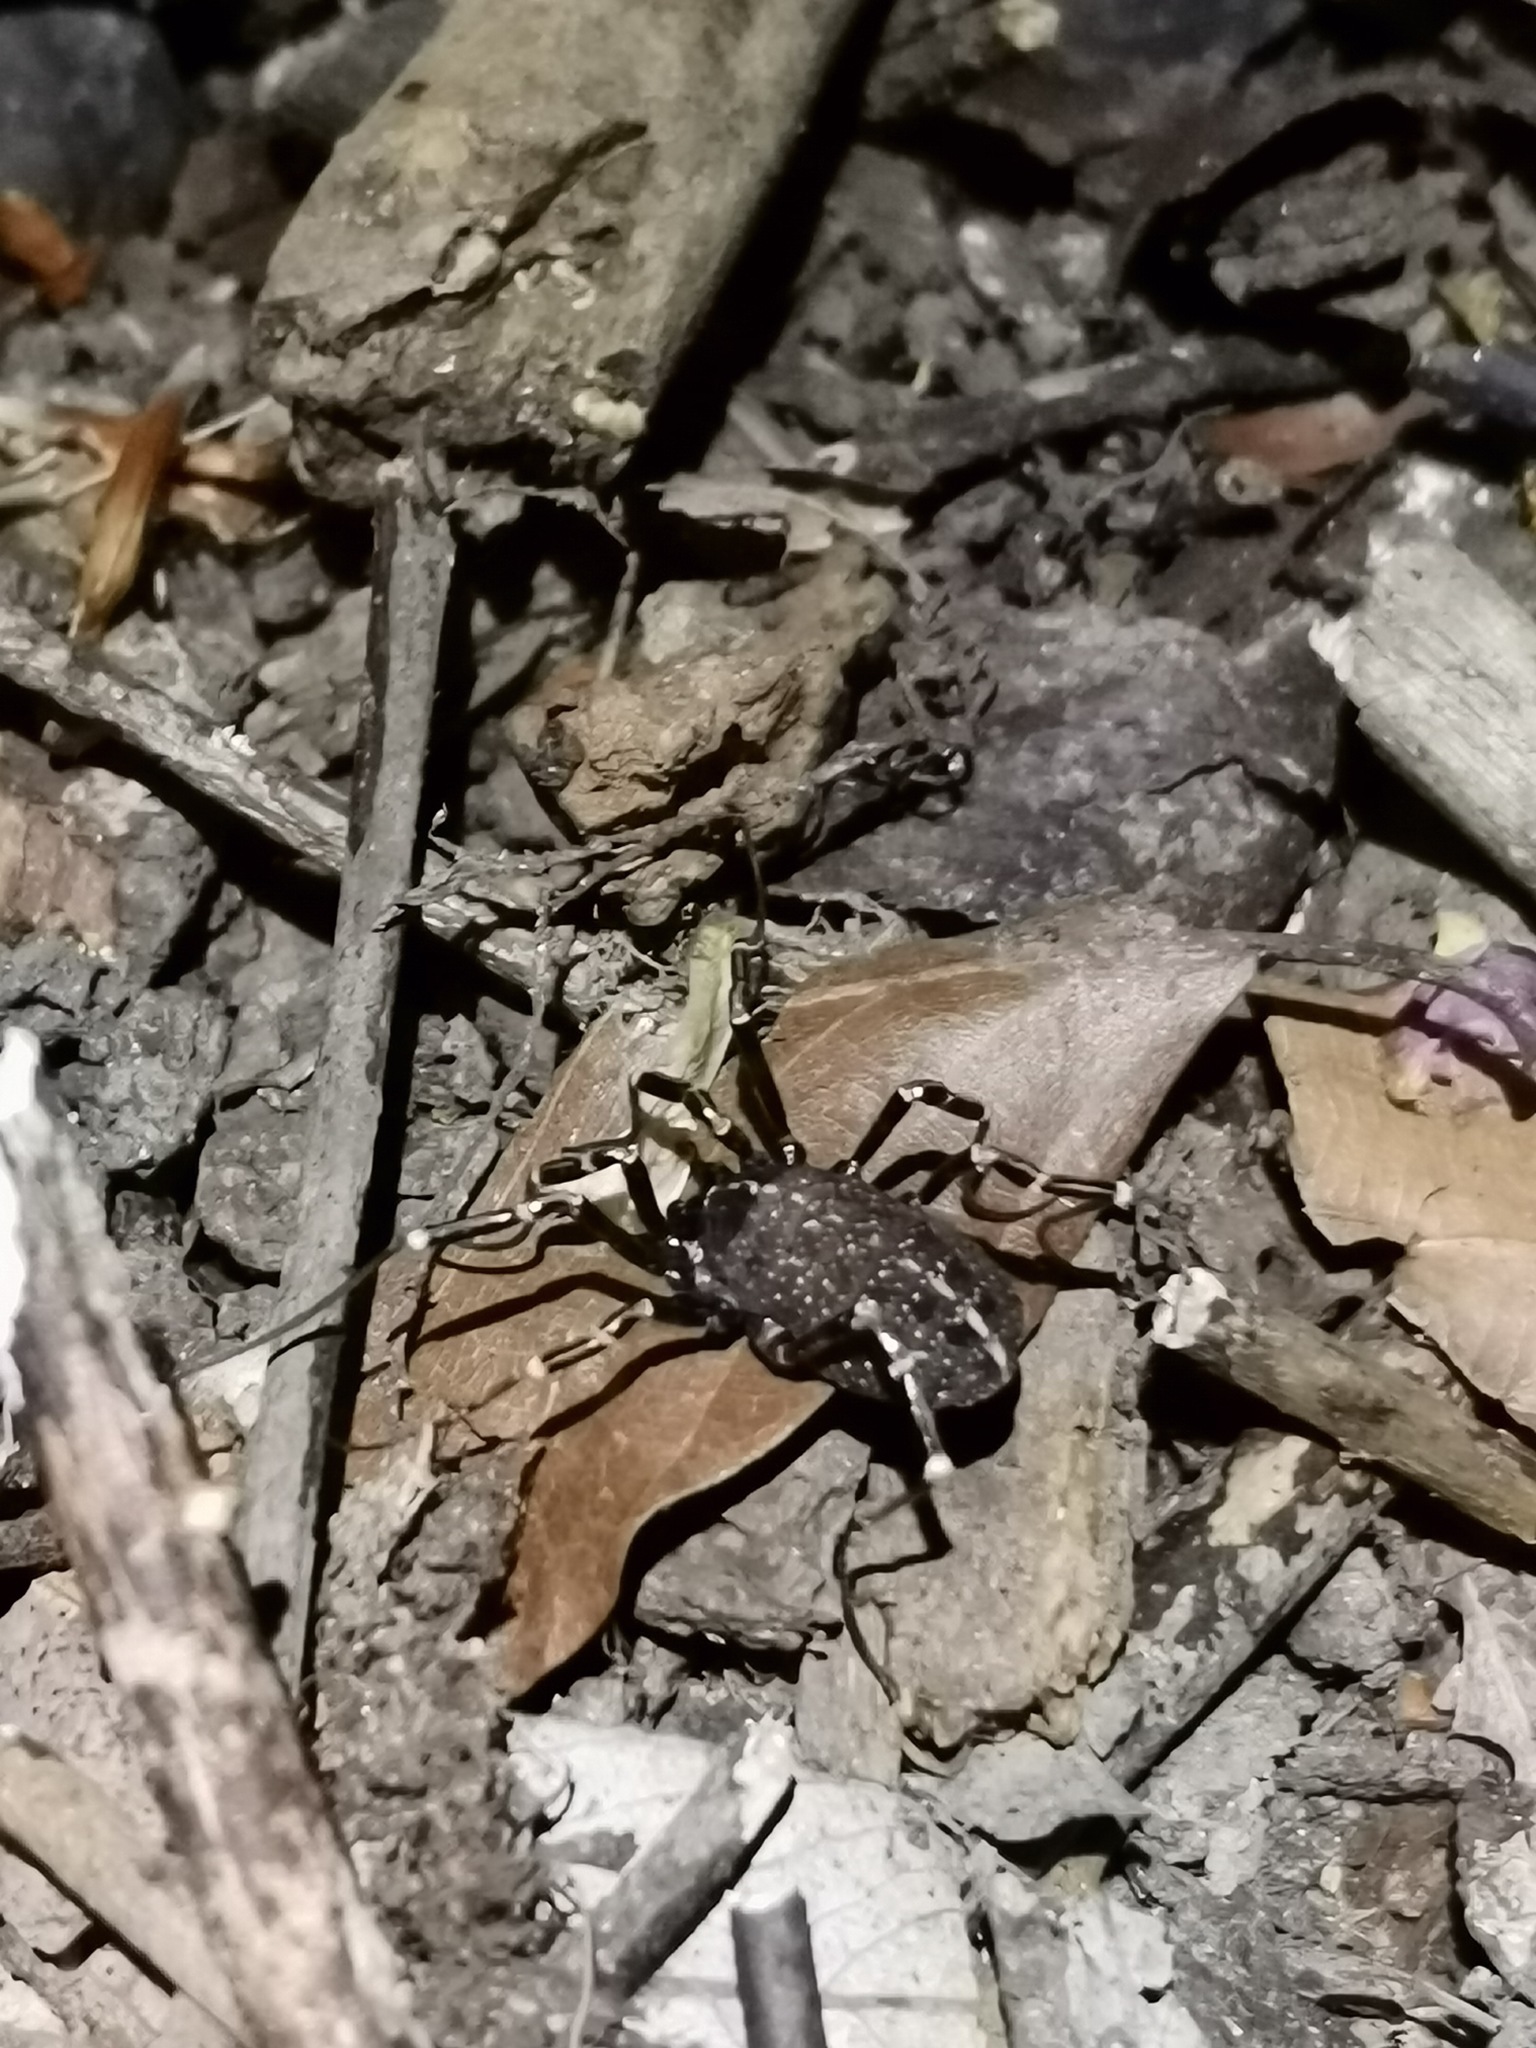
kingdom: Animalia
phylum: Arthropoda
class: Arachnida
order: Opiliones
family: Phalangiidae
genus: Egaenus
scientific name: Egaenus convexus
